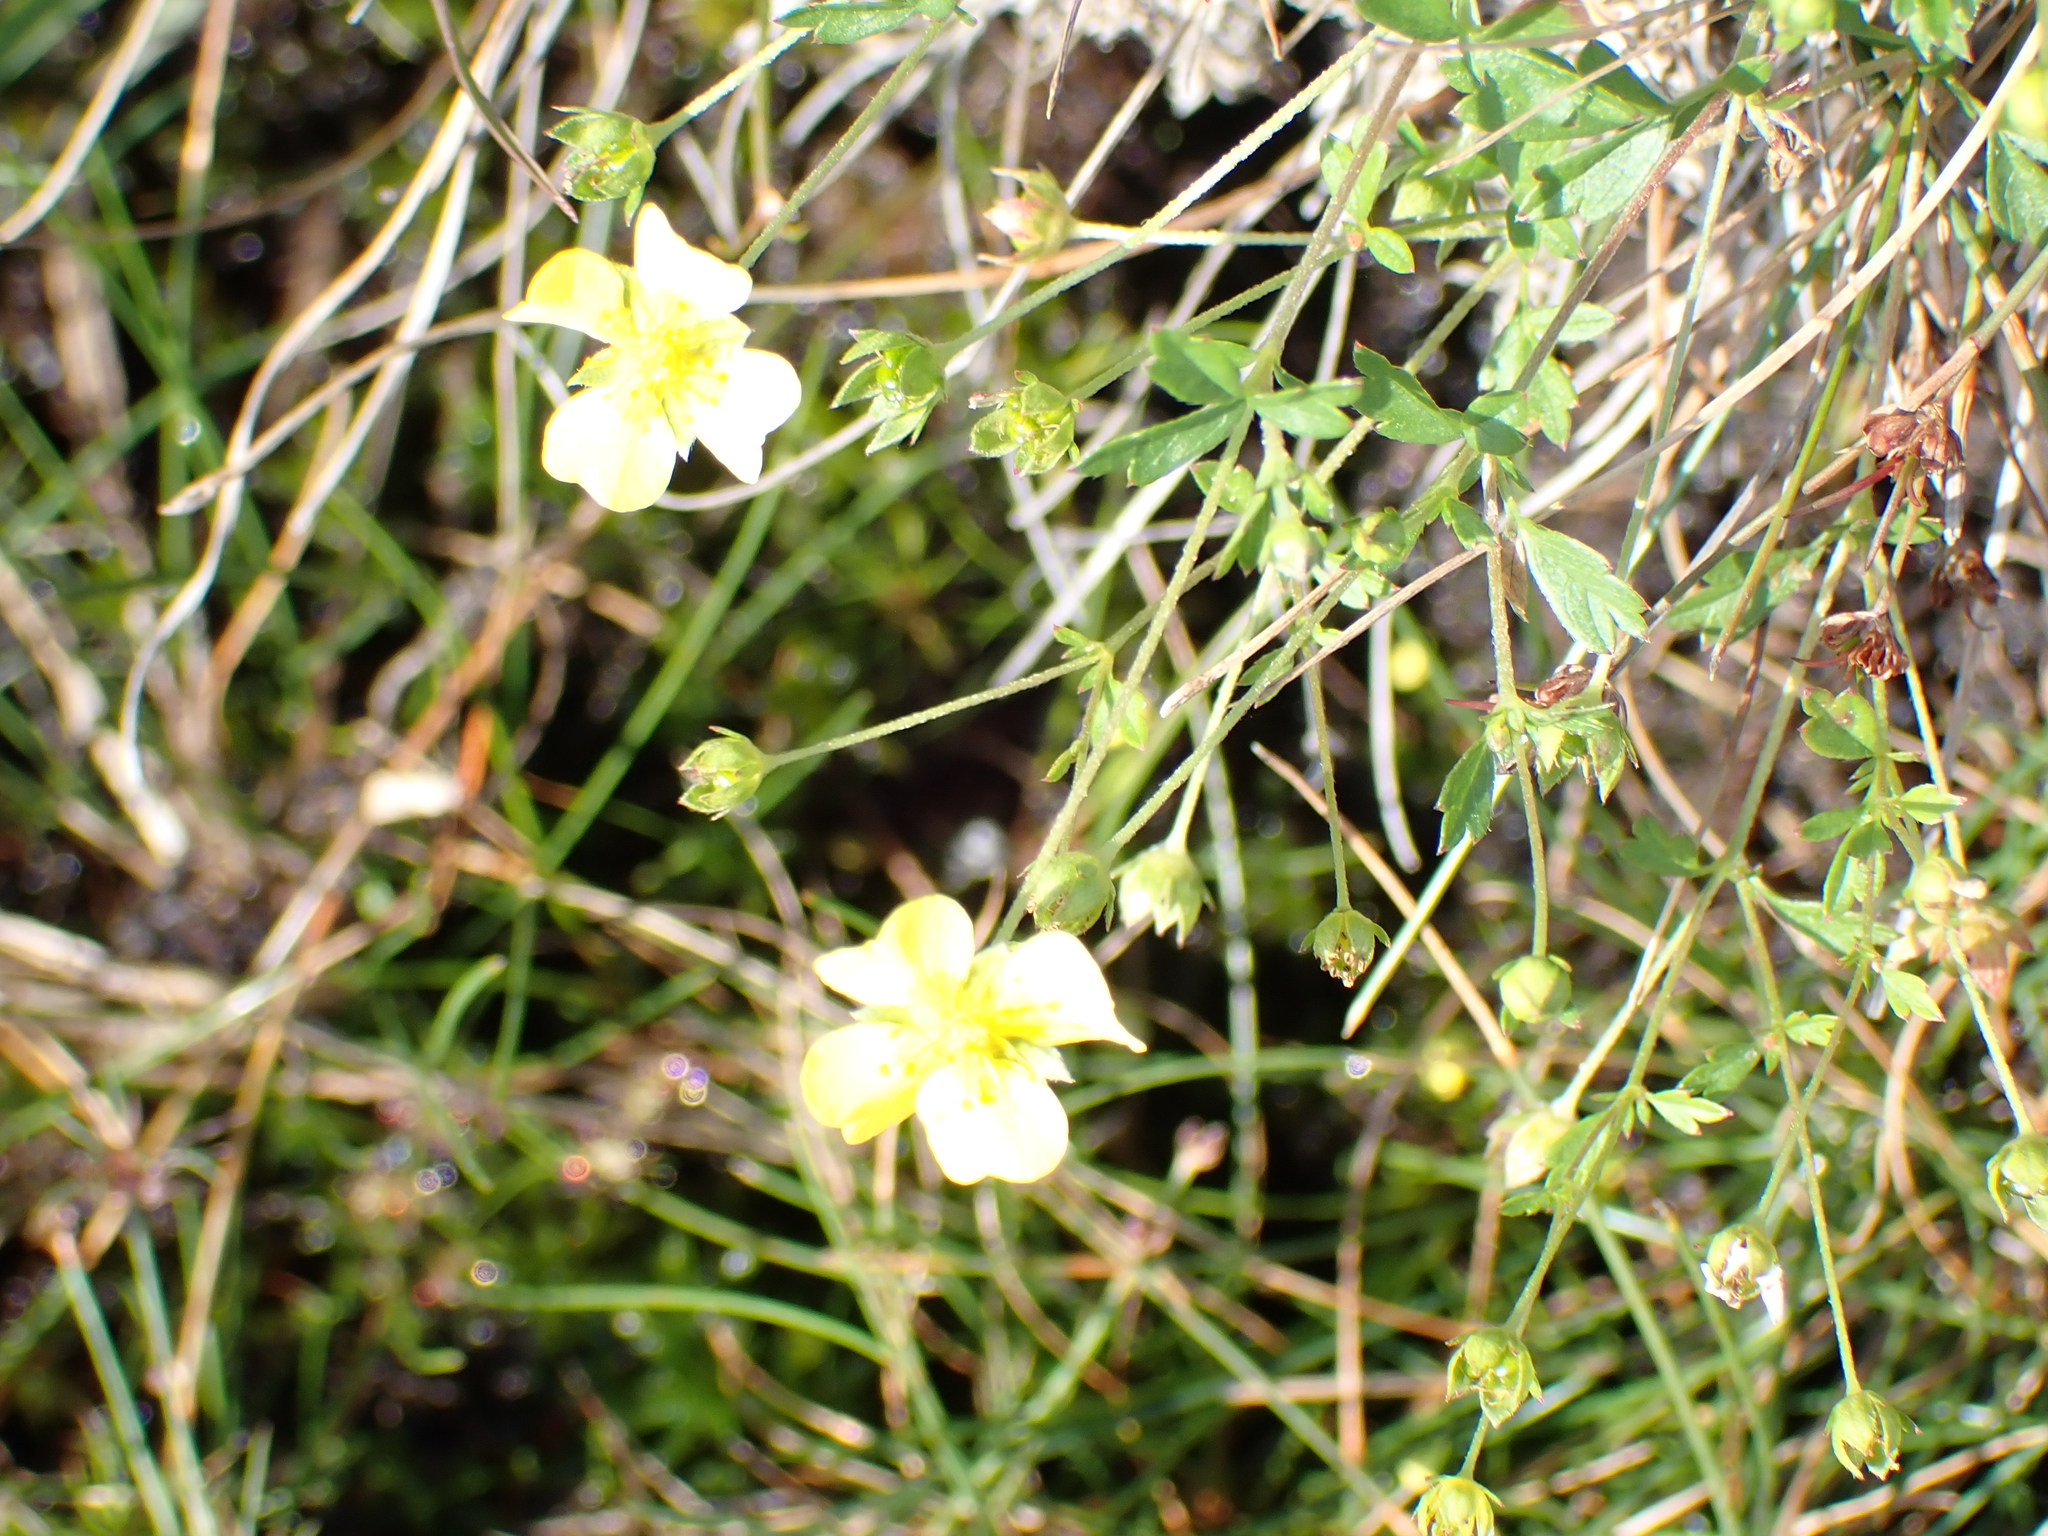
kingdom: Plantae
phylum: Tracheophyta
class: Magnoliopsida
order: Rosales
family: Rosaceae
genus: Potentilla
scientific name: Potentilla erecta
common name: Tormentil
